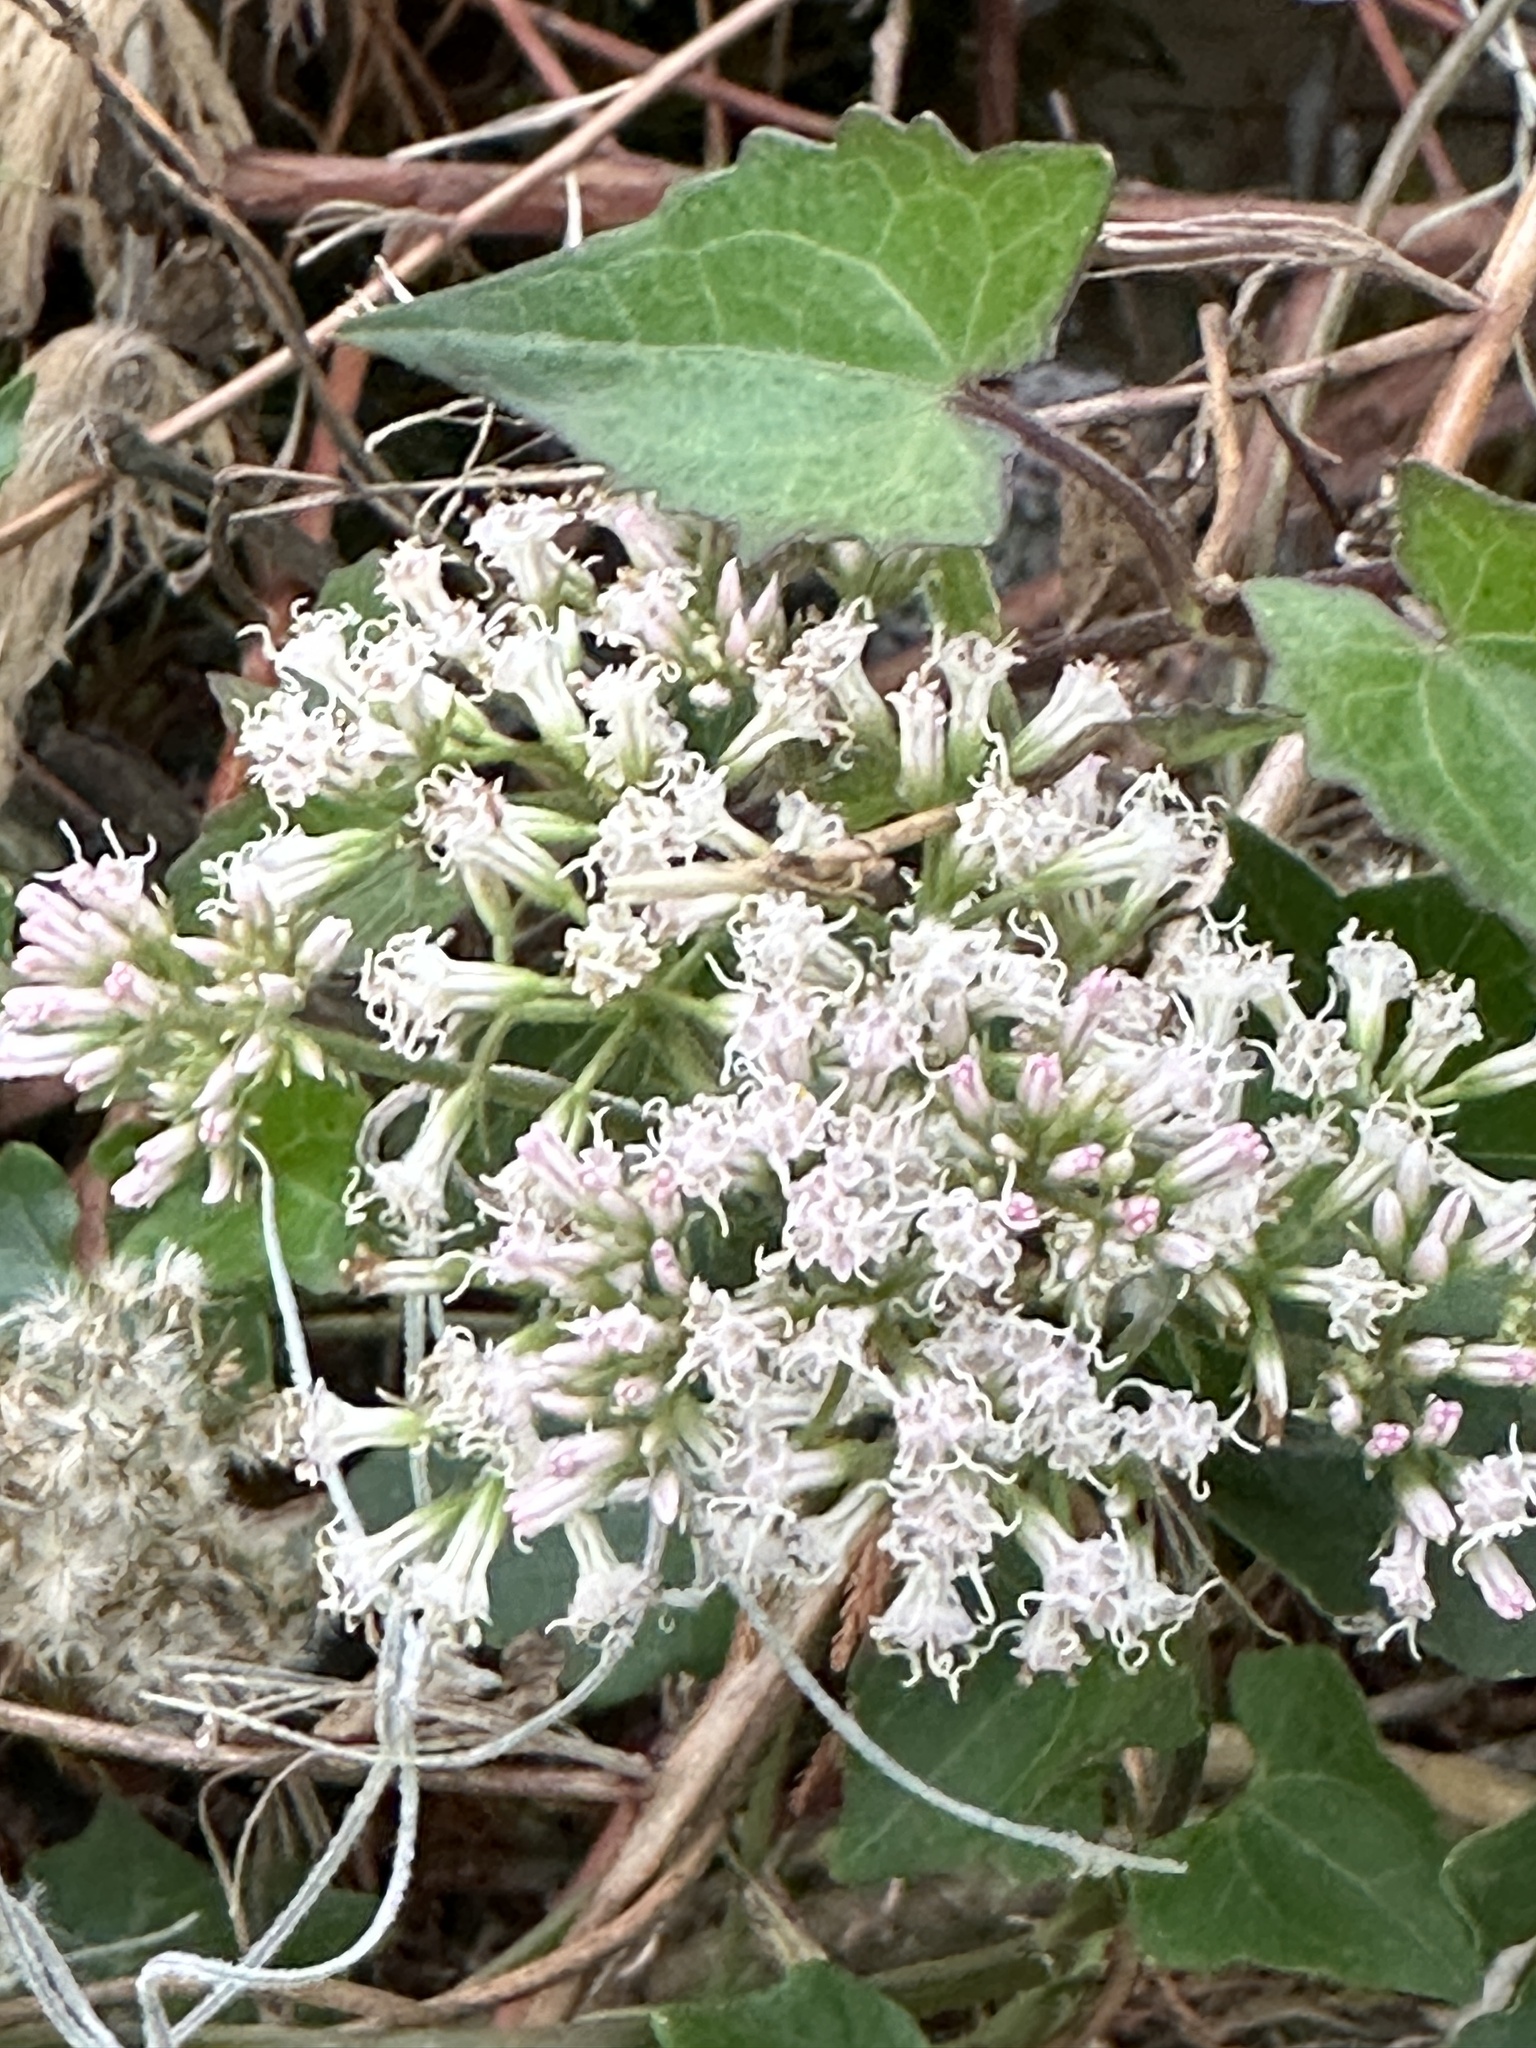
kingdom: Plantae
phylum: Tracheophyta
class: Magnoliopsida
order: Asterales
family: Asteraceae
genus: Mikania
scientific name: Mikania scandens
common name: Climbing hempvine
